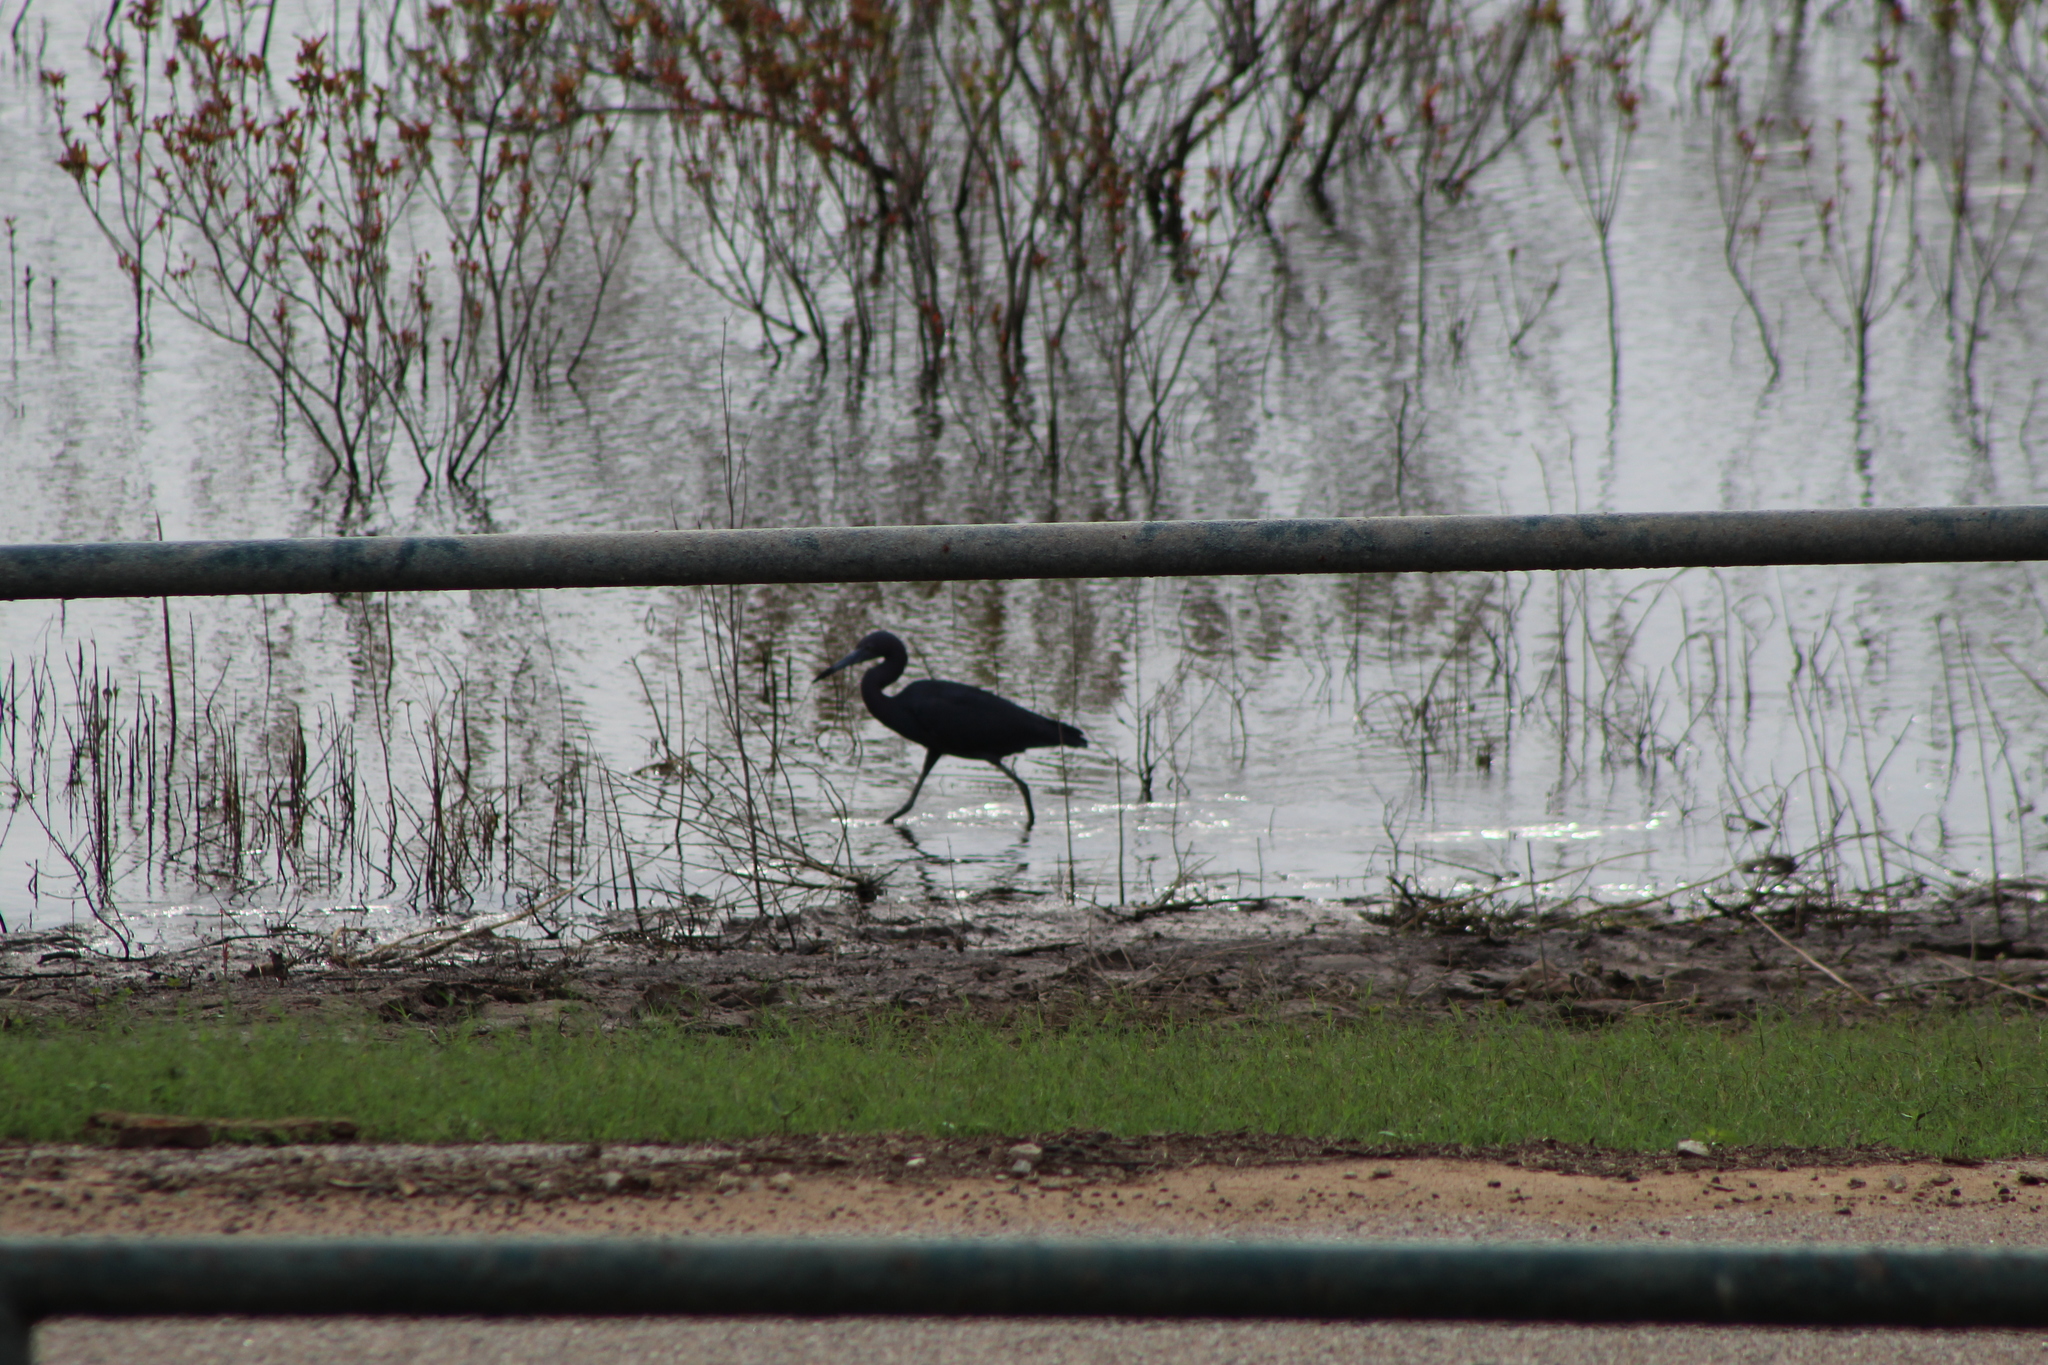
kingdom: Animalia
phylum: Chordata
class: Aves
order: Pelecaniformes
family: Ardeidae
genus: Egretta
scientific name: Egretta caerulea
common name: Little blue heron
